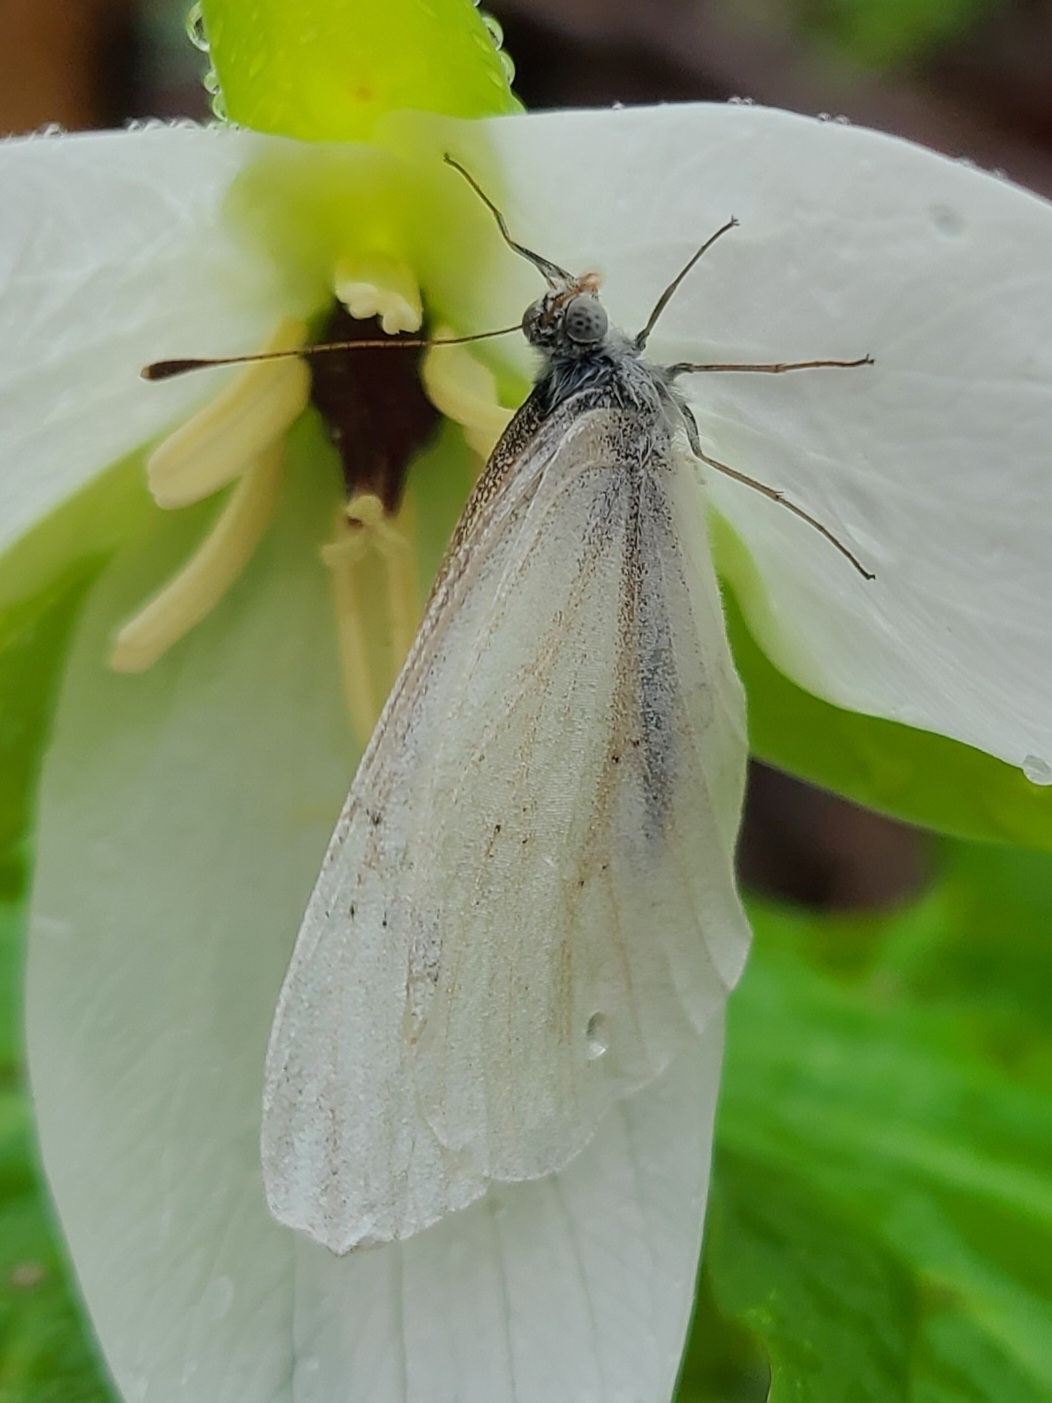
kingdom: Animalia
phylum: Arthropoda
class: Insecta
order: Lepidoptera
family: Pieridae
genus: Pieris
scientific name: Pieris virginiensis
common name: West virginia white
